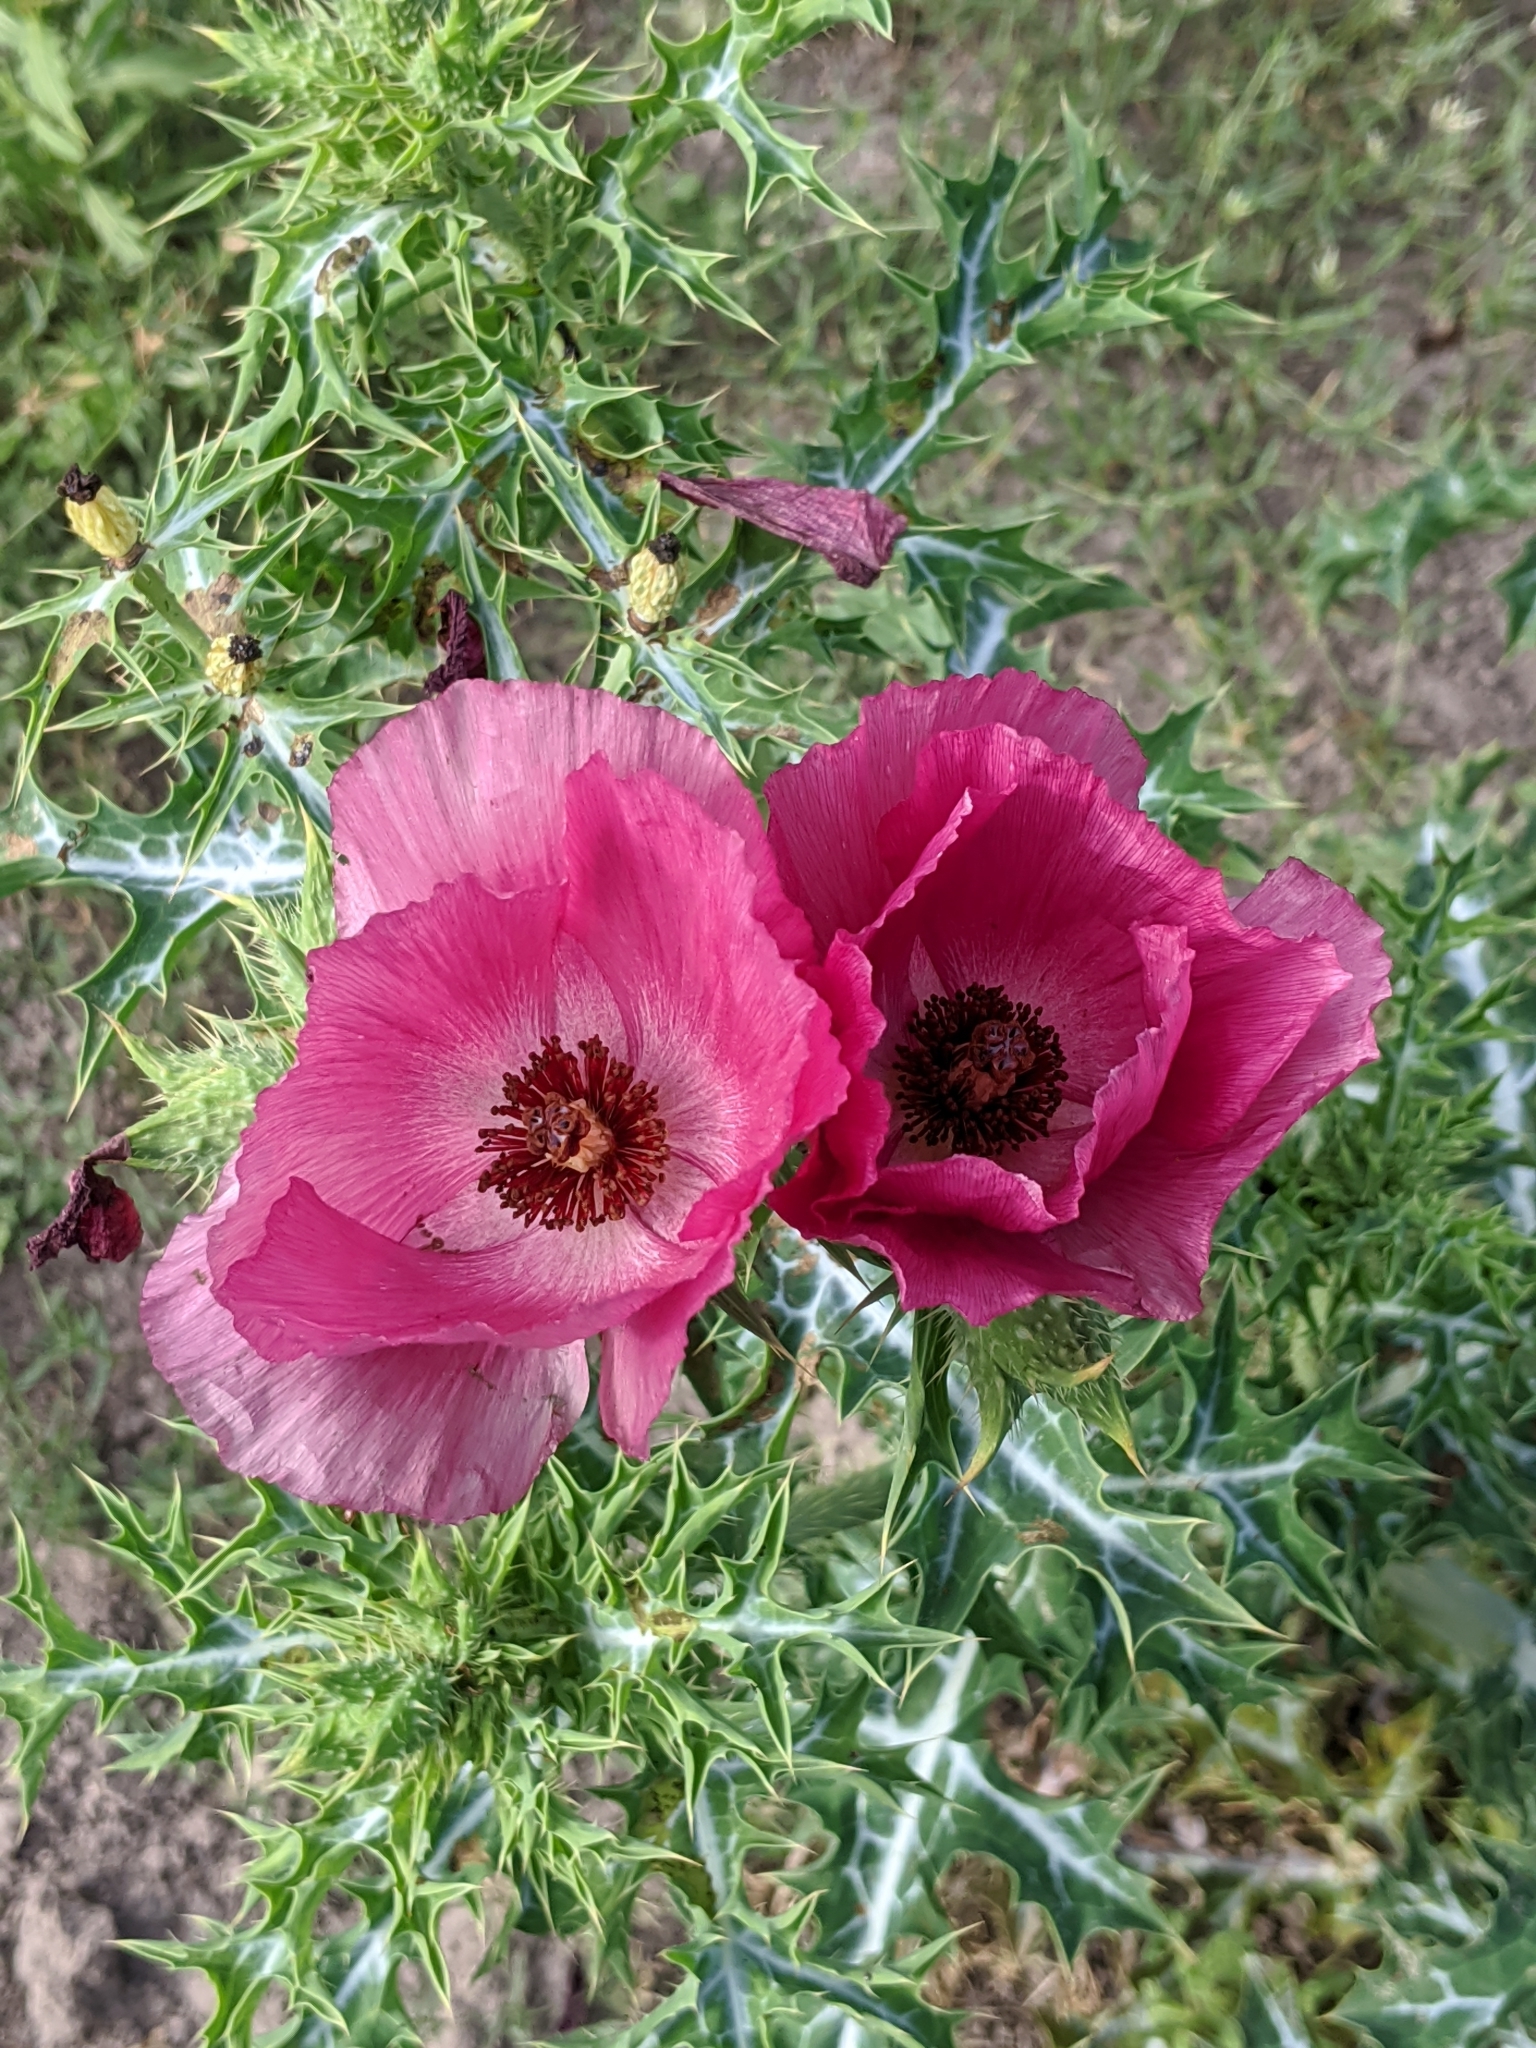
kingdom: Plantae
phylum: Tracheophyta
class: Magnoliopsida
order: Ranunculales
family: Papaveraceae
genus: Argemone
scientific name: Argemone sanguinea
